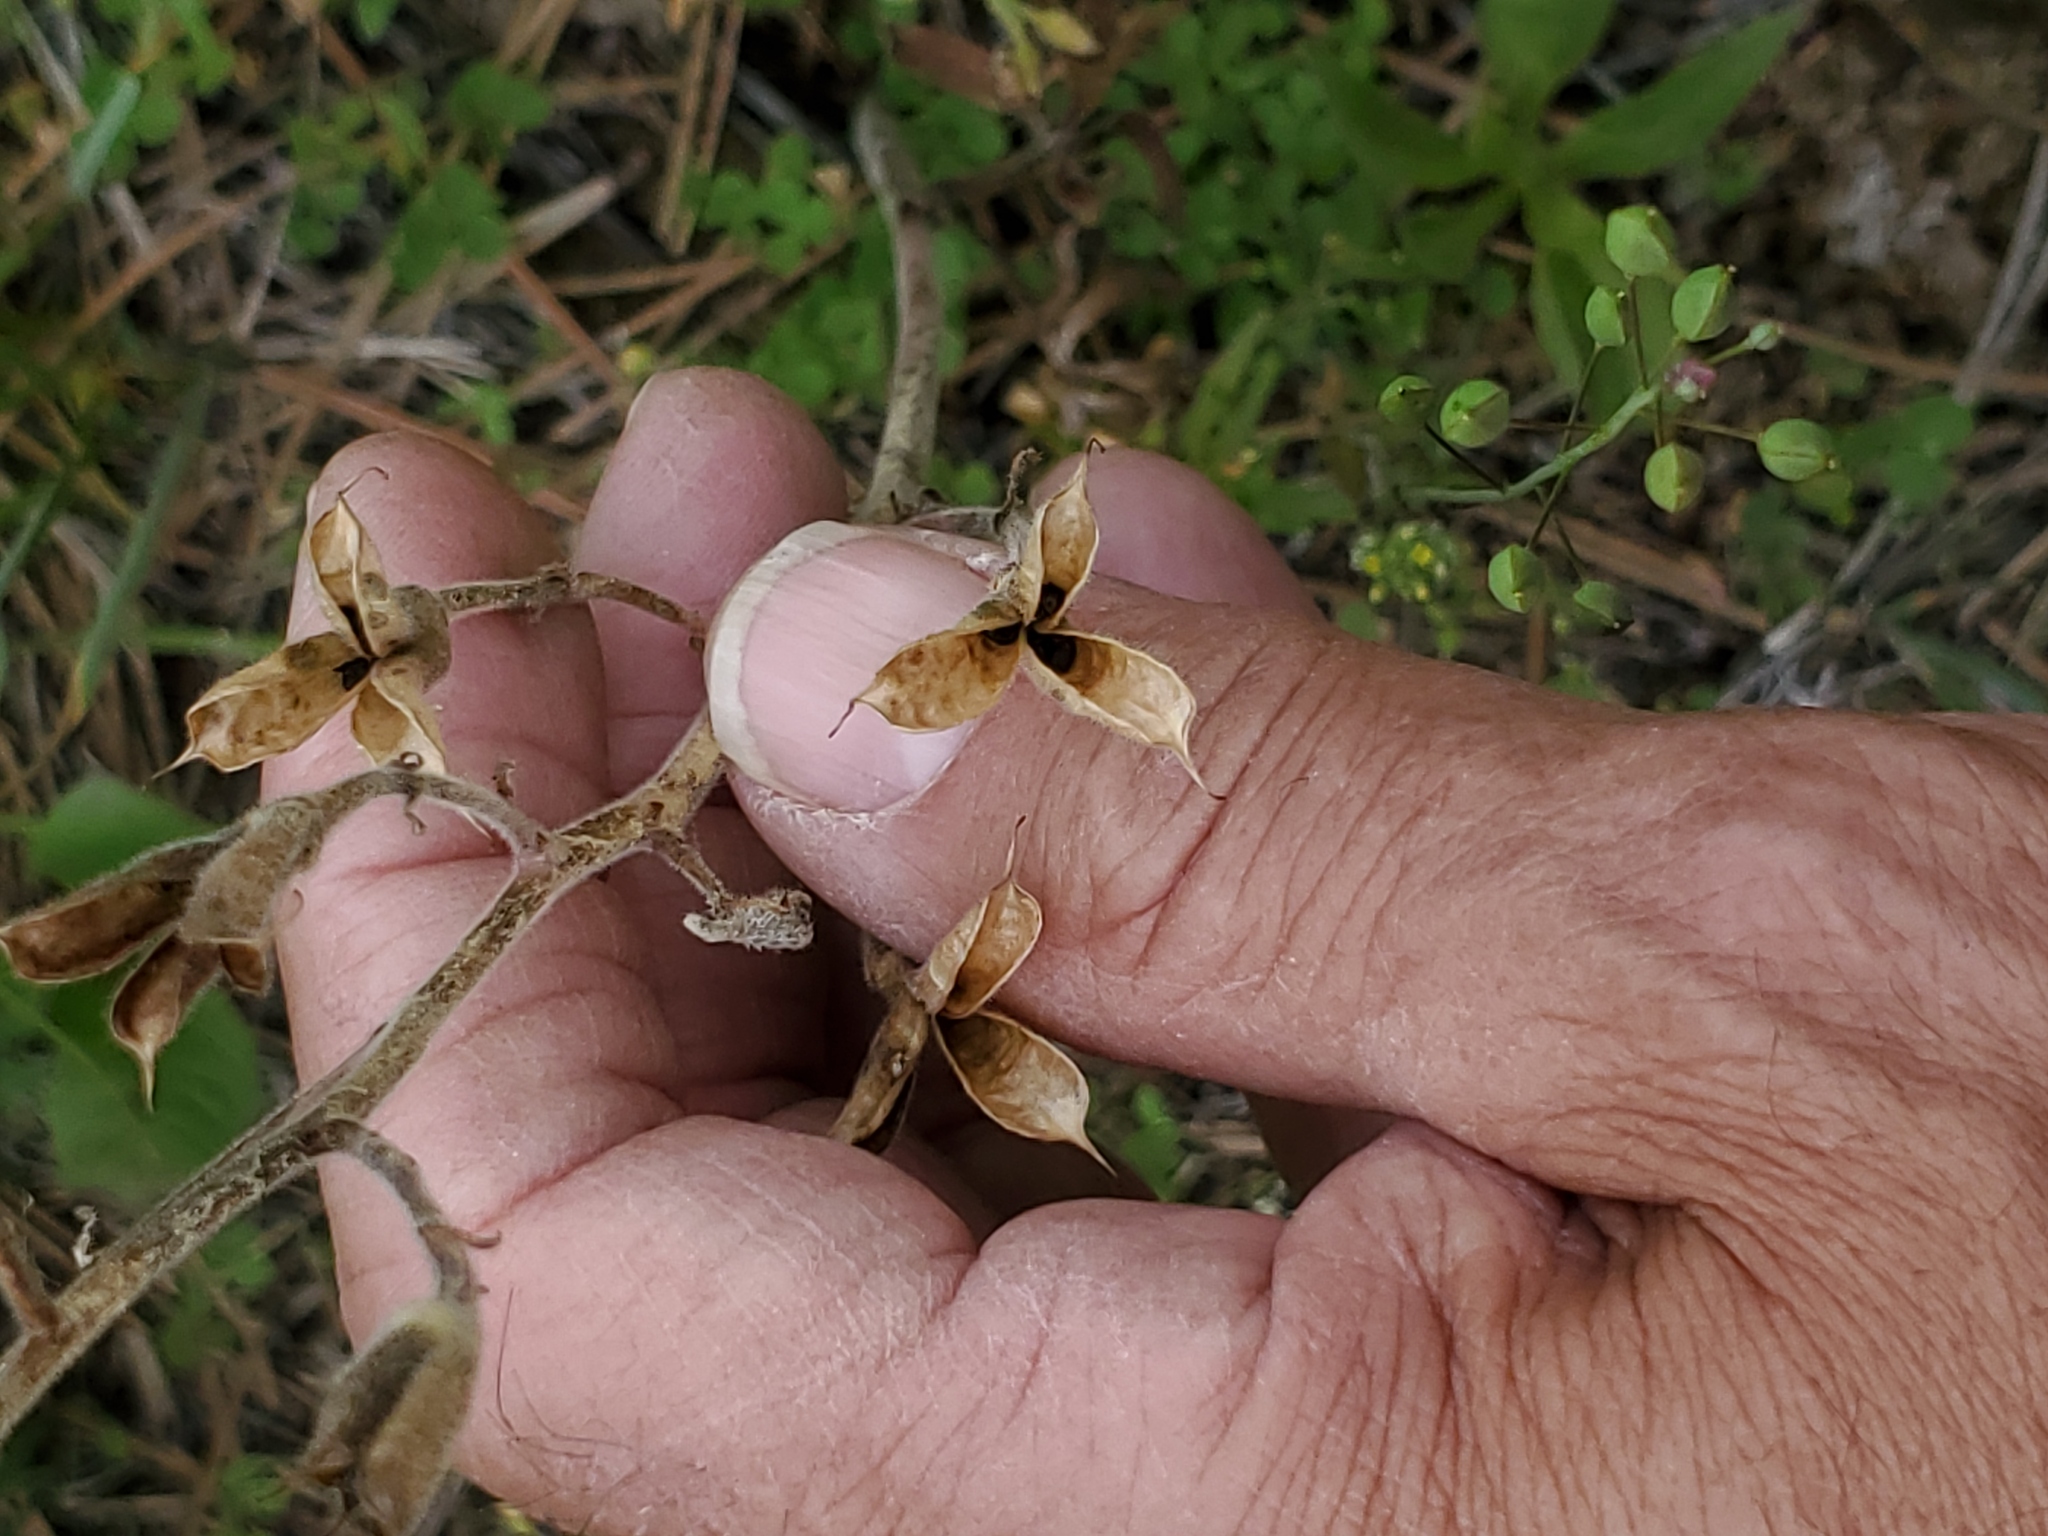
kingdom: Plantae
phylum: Tracheophyta
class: Magnoliopsida
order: Ranunculales
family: Ranunculaceae
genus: Delphinium
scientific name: Delphinium bicolor
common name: Low larkspur
